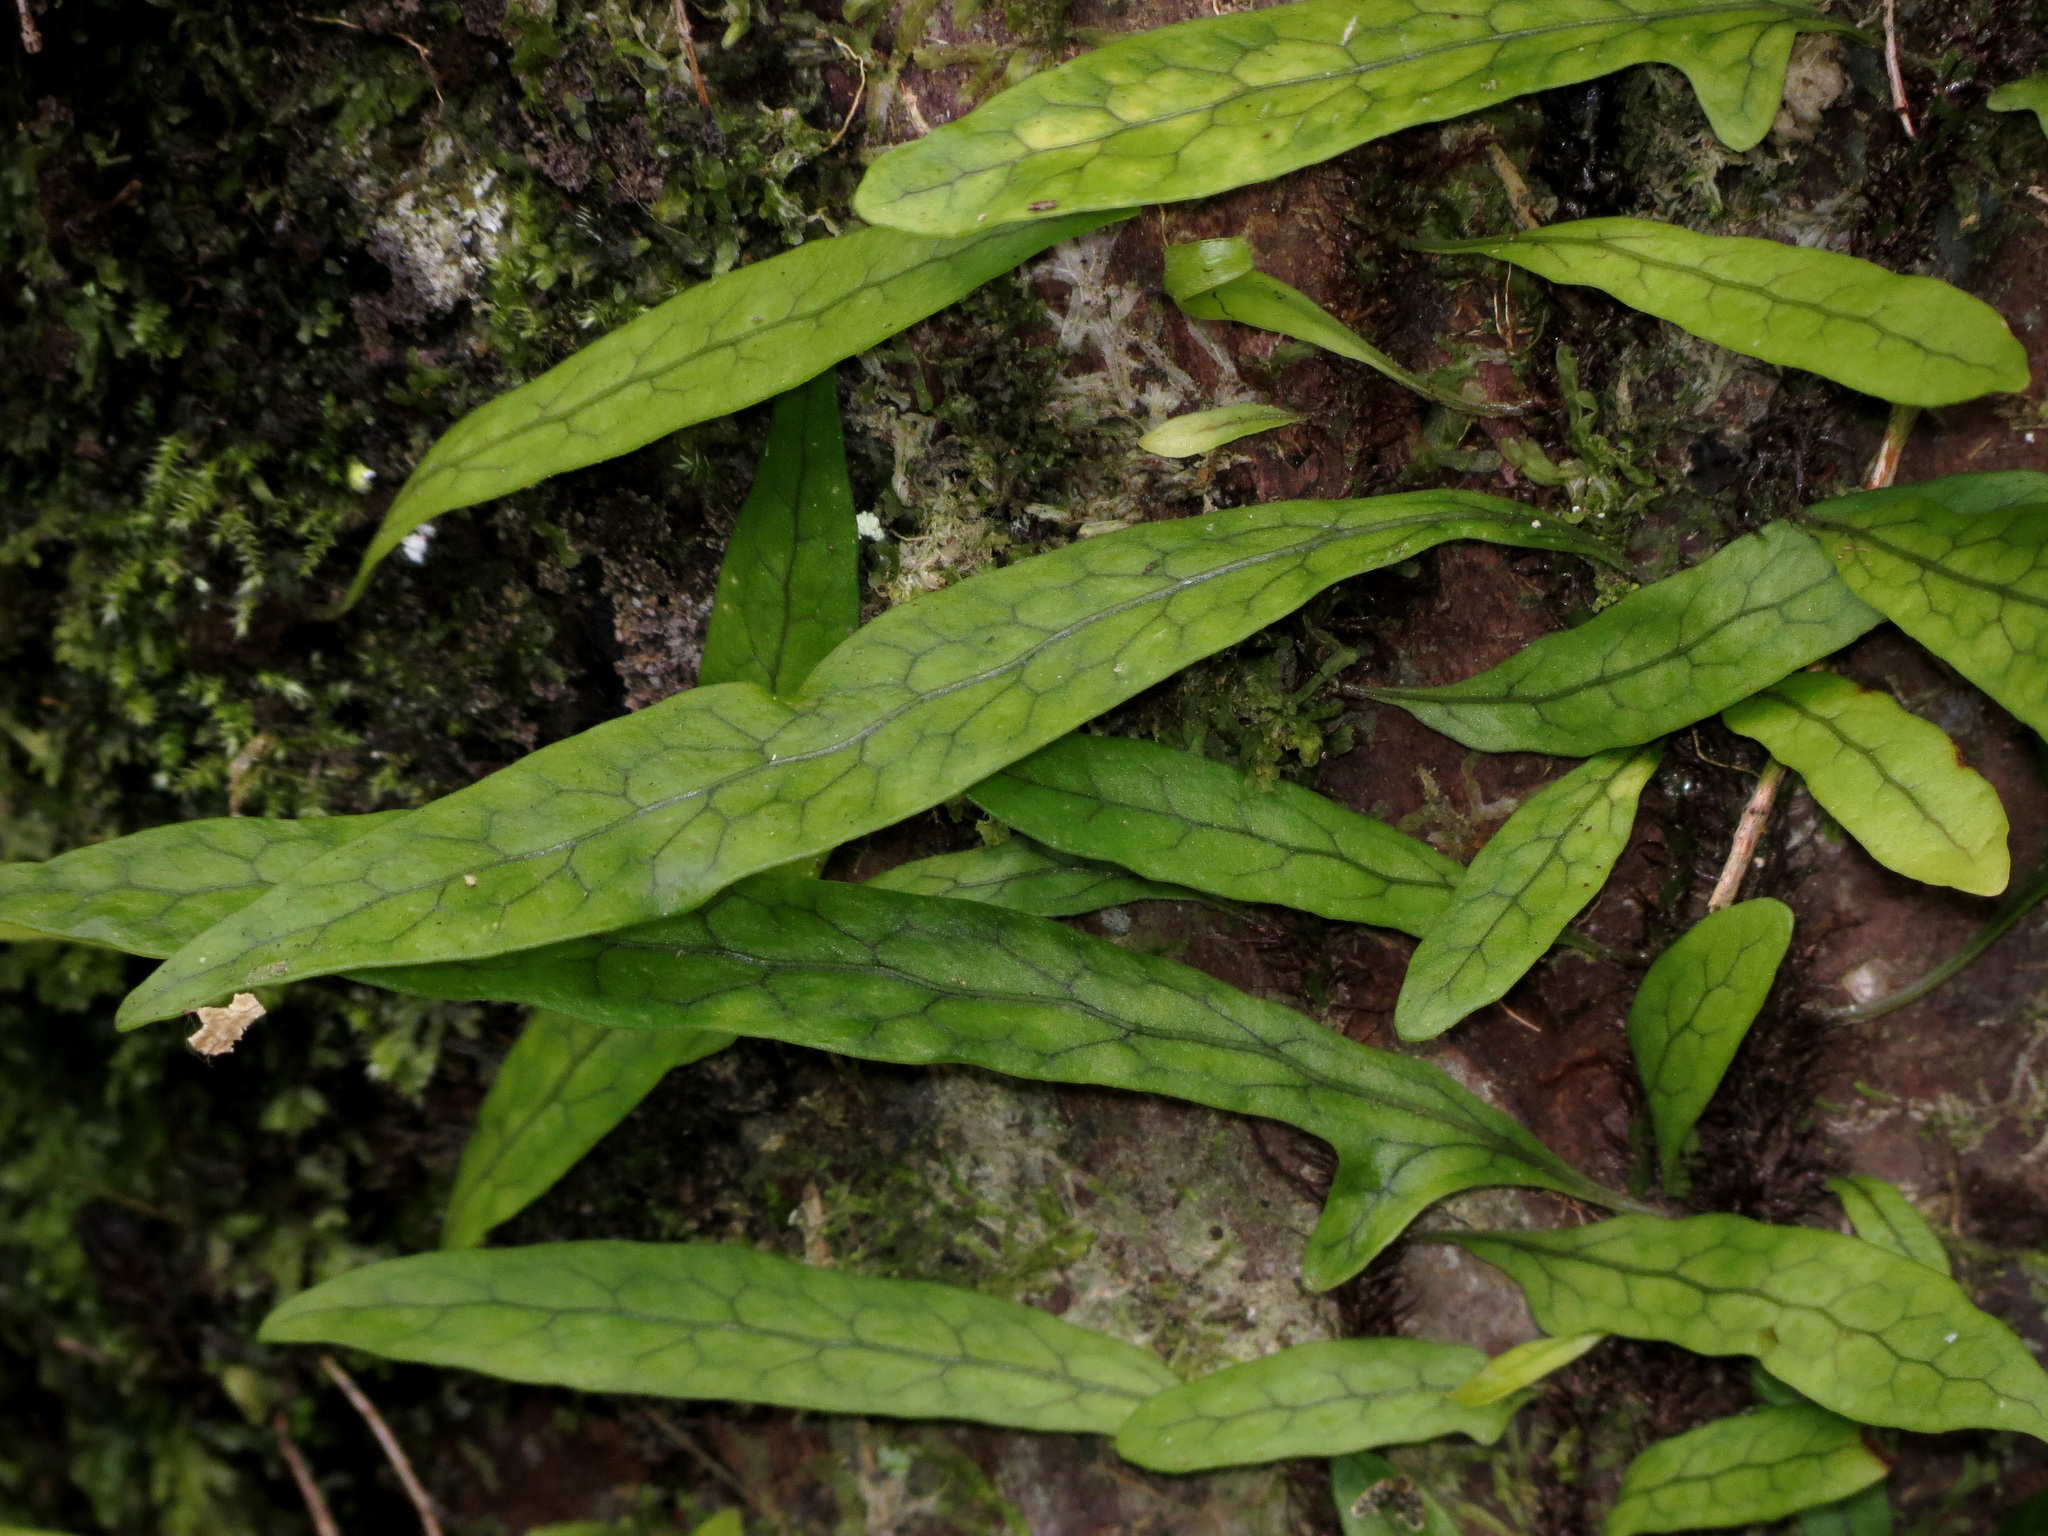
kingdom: Plantae
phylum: Tracheophyta
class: Polypodiopsida
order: Polypodiales
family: Polypodiaceae
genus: Lecanopteris
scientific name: Lecanopteris scandens
